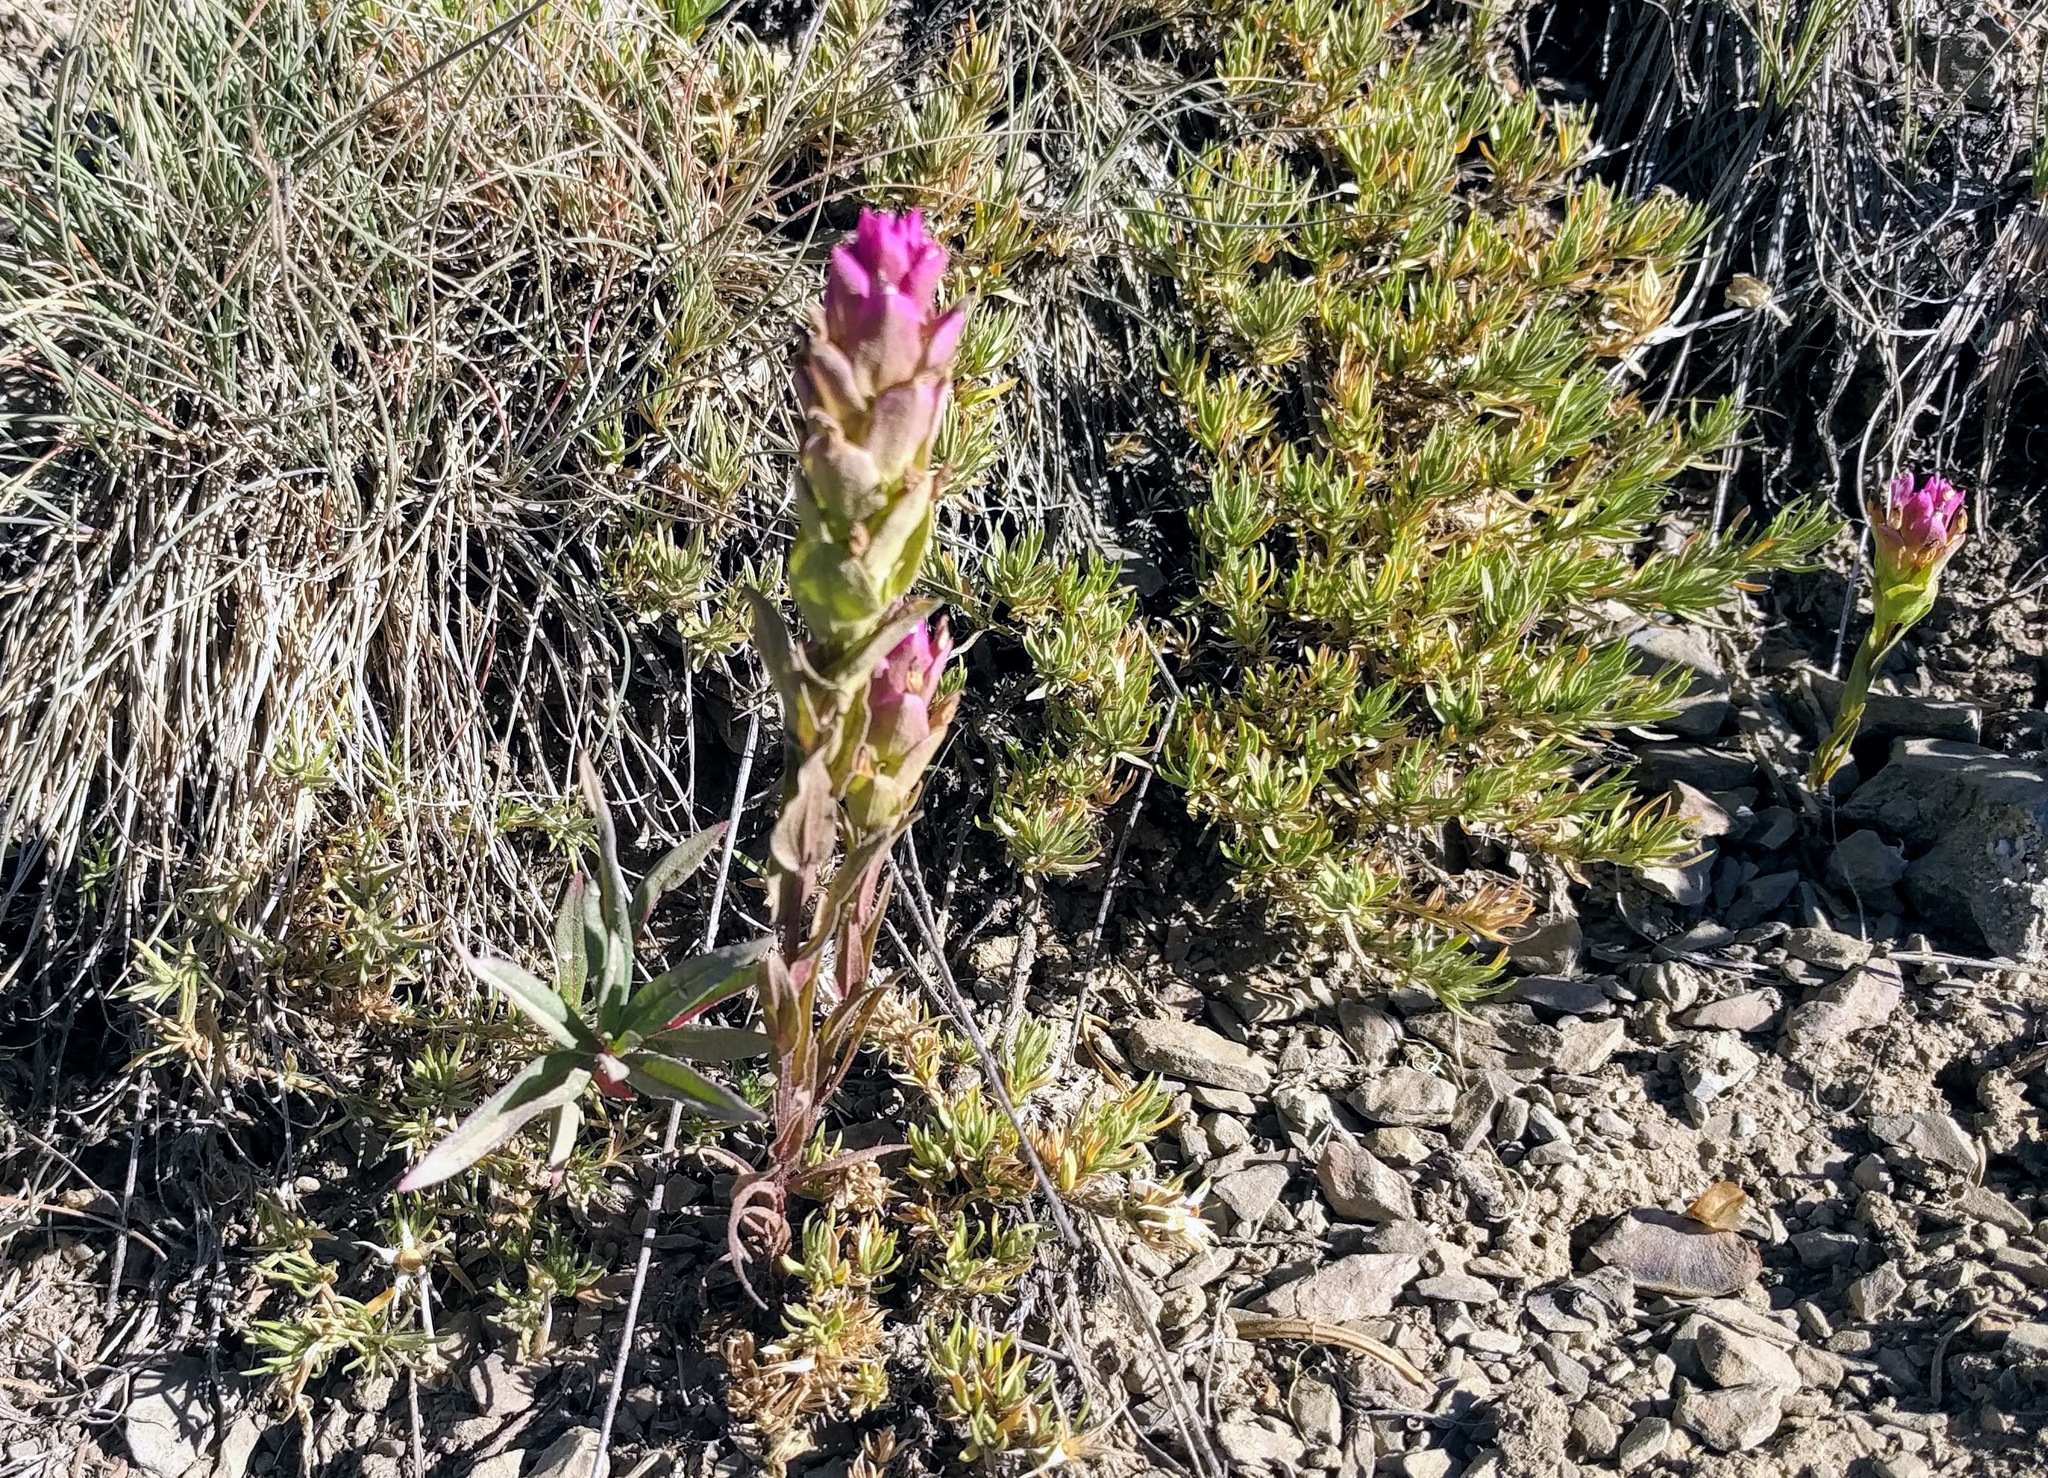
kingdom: Plantae
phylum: Tracheophyta
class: Magnoliopsida
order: Lamiales
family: Orobanchaceae
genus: Orthocarpus
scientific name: Orthocarpus imbricatus
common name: Mountain owl's-clover
